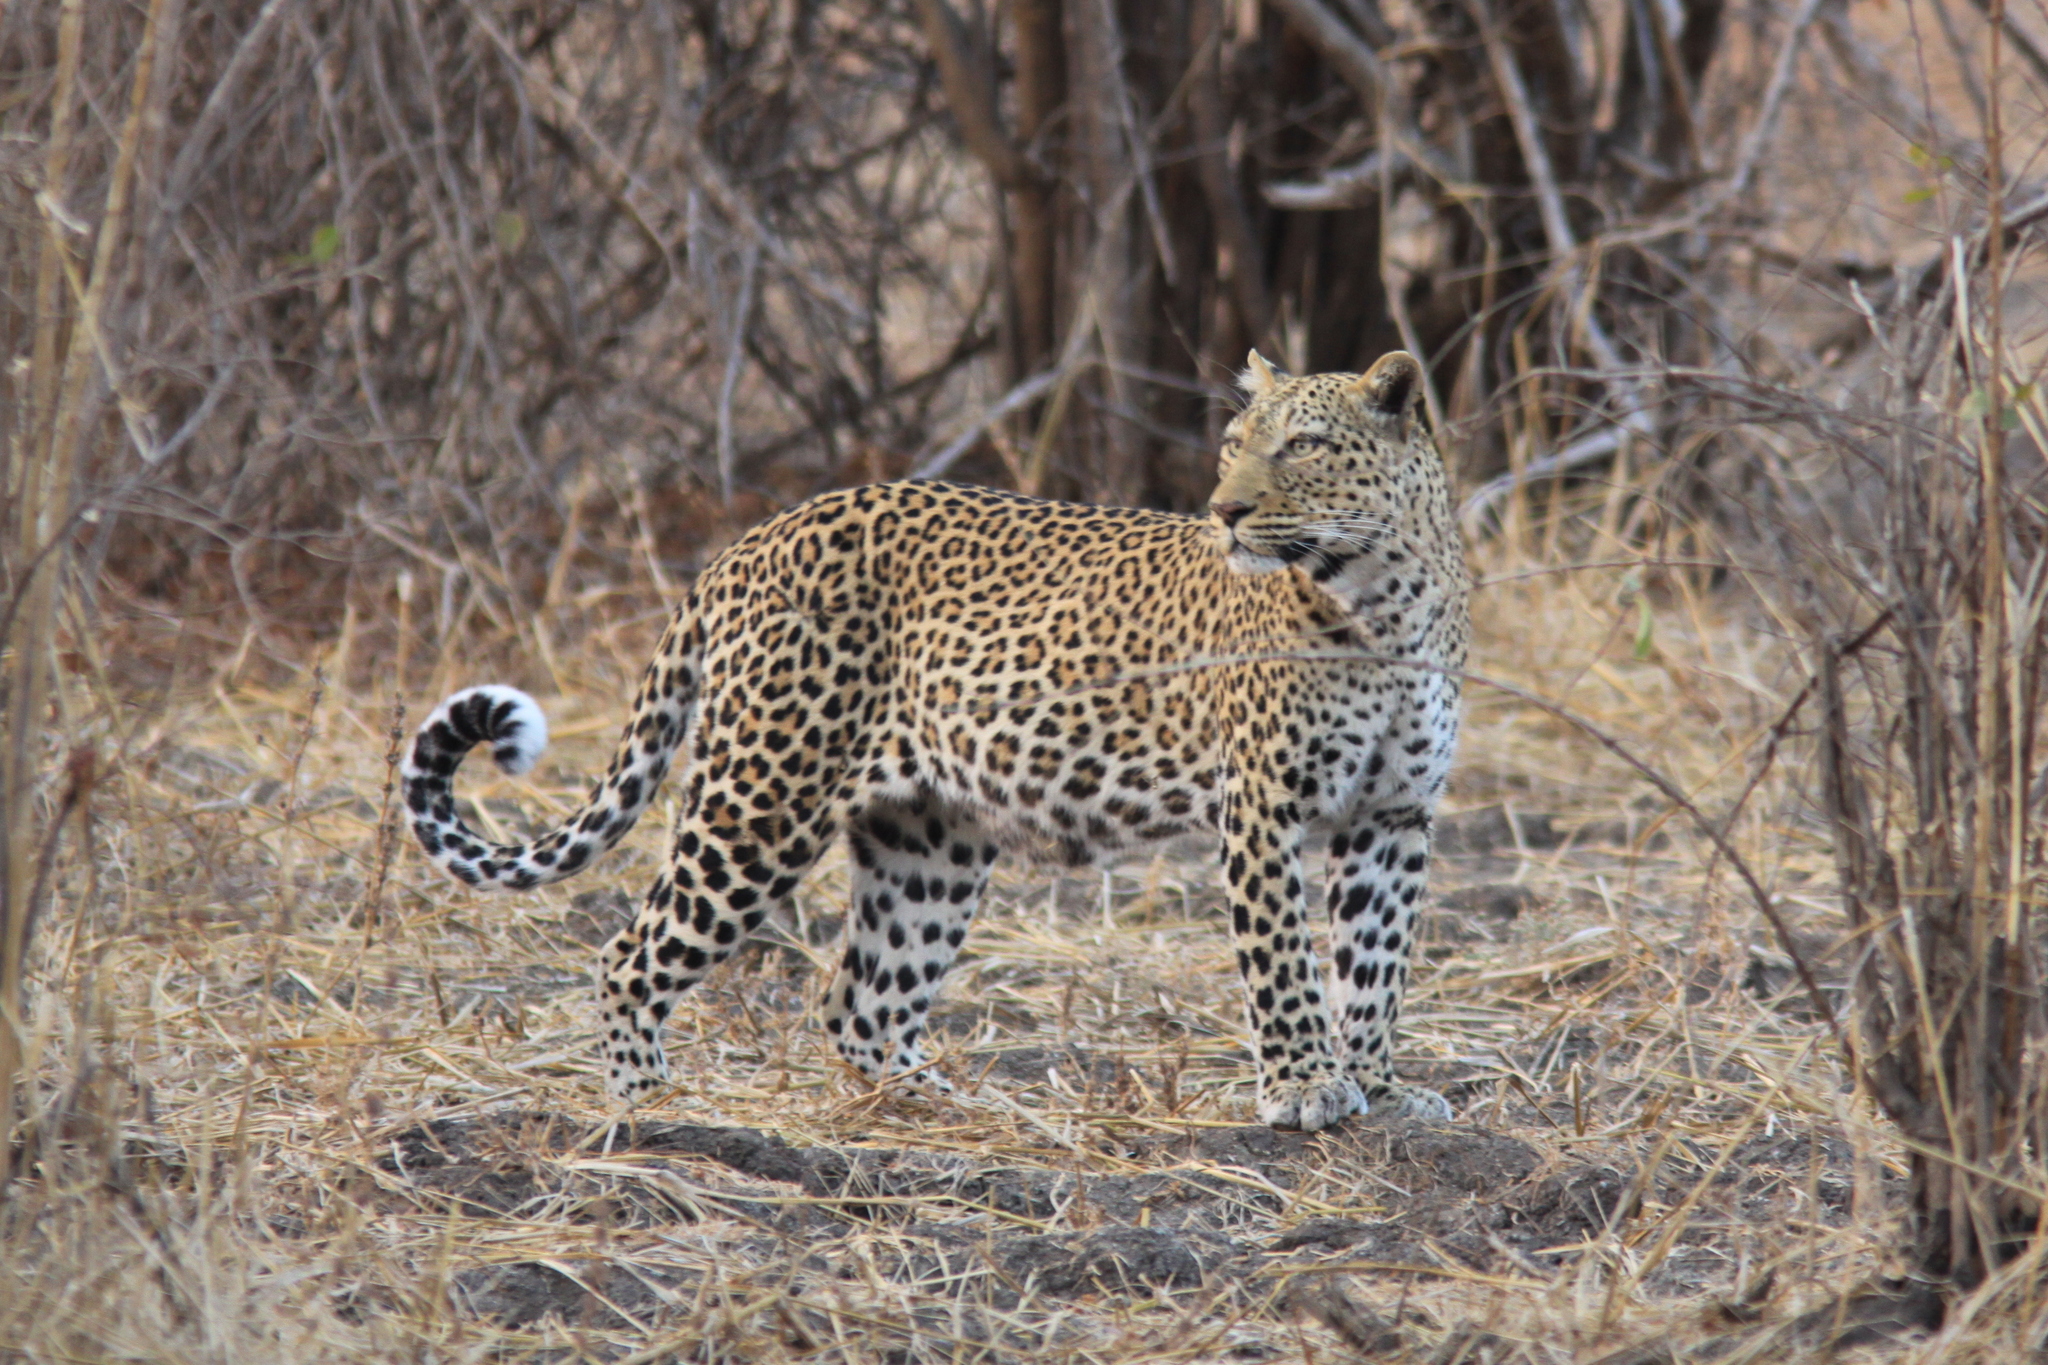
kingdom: Animalia
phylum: Chordata
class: Mammalia
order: Carnivora
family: Felidae
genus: Panthera
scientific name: Panthera pardus
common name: Leopard
